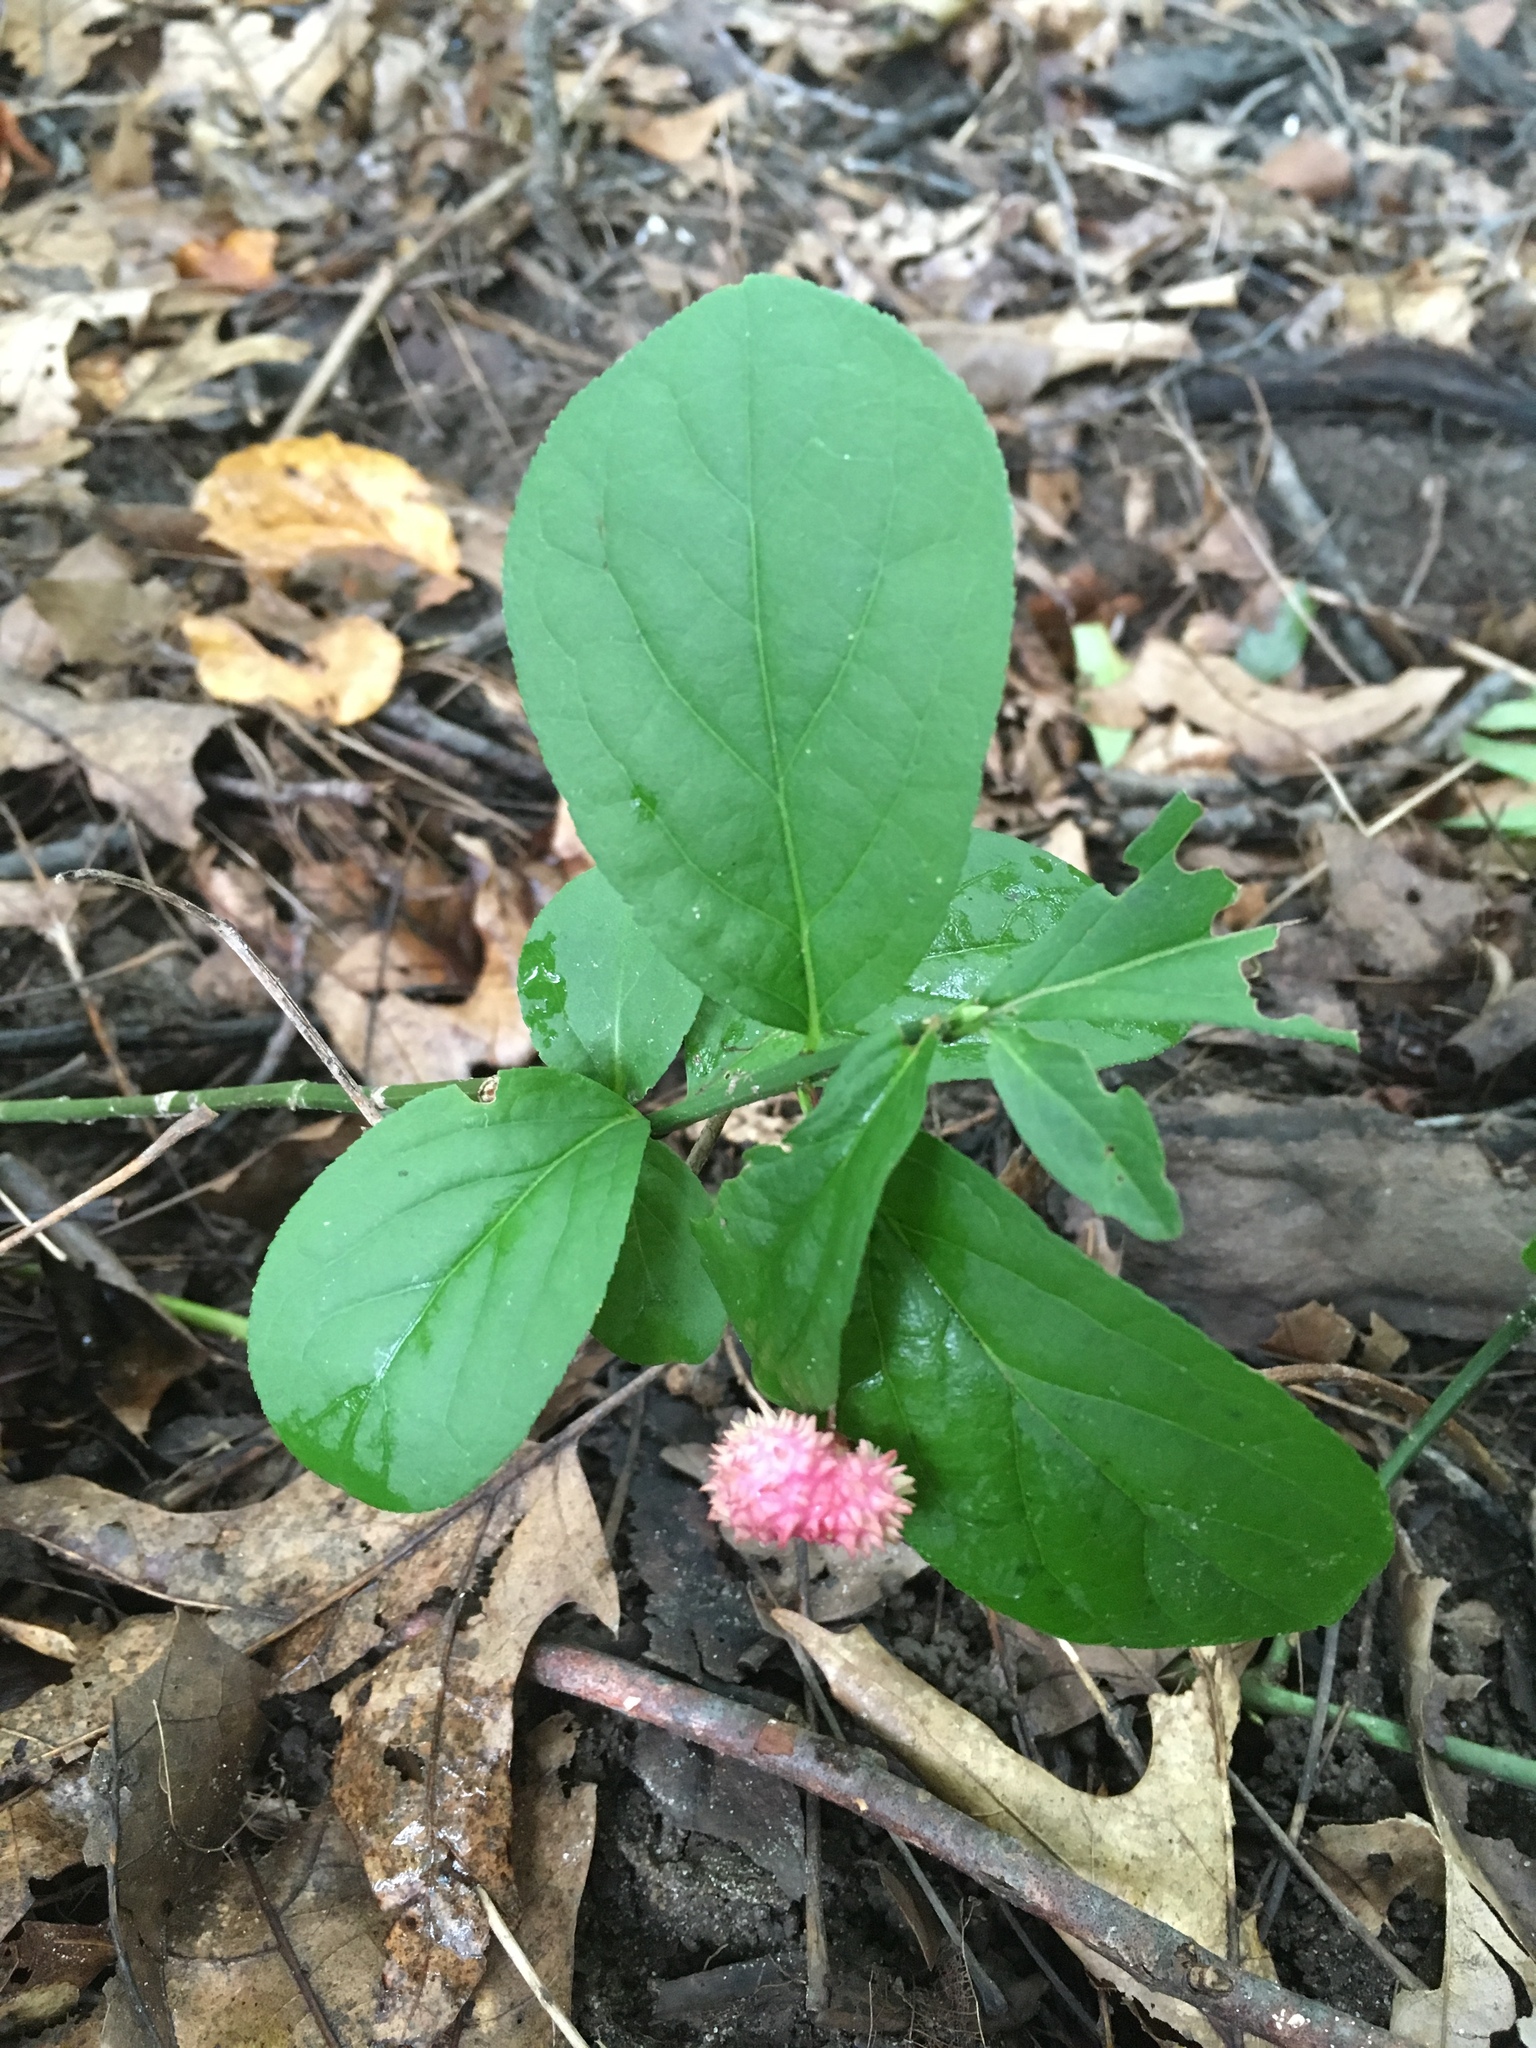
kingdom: Plantae
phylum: Tracheophyta
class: Magnoliopsida
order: Celastrales
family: Celastraceae
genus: Euonymus
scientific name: Euonymus obovatus
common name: Running strawberry-bush
